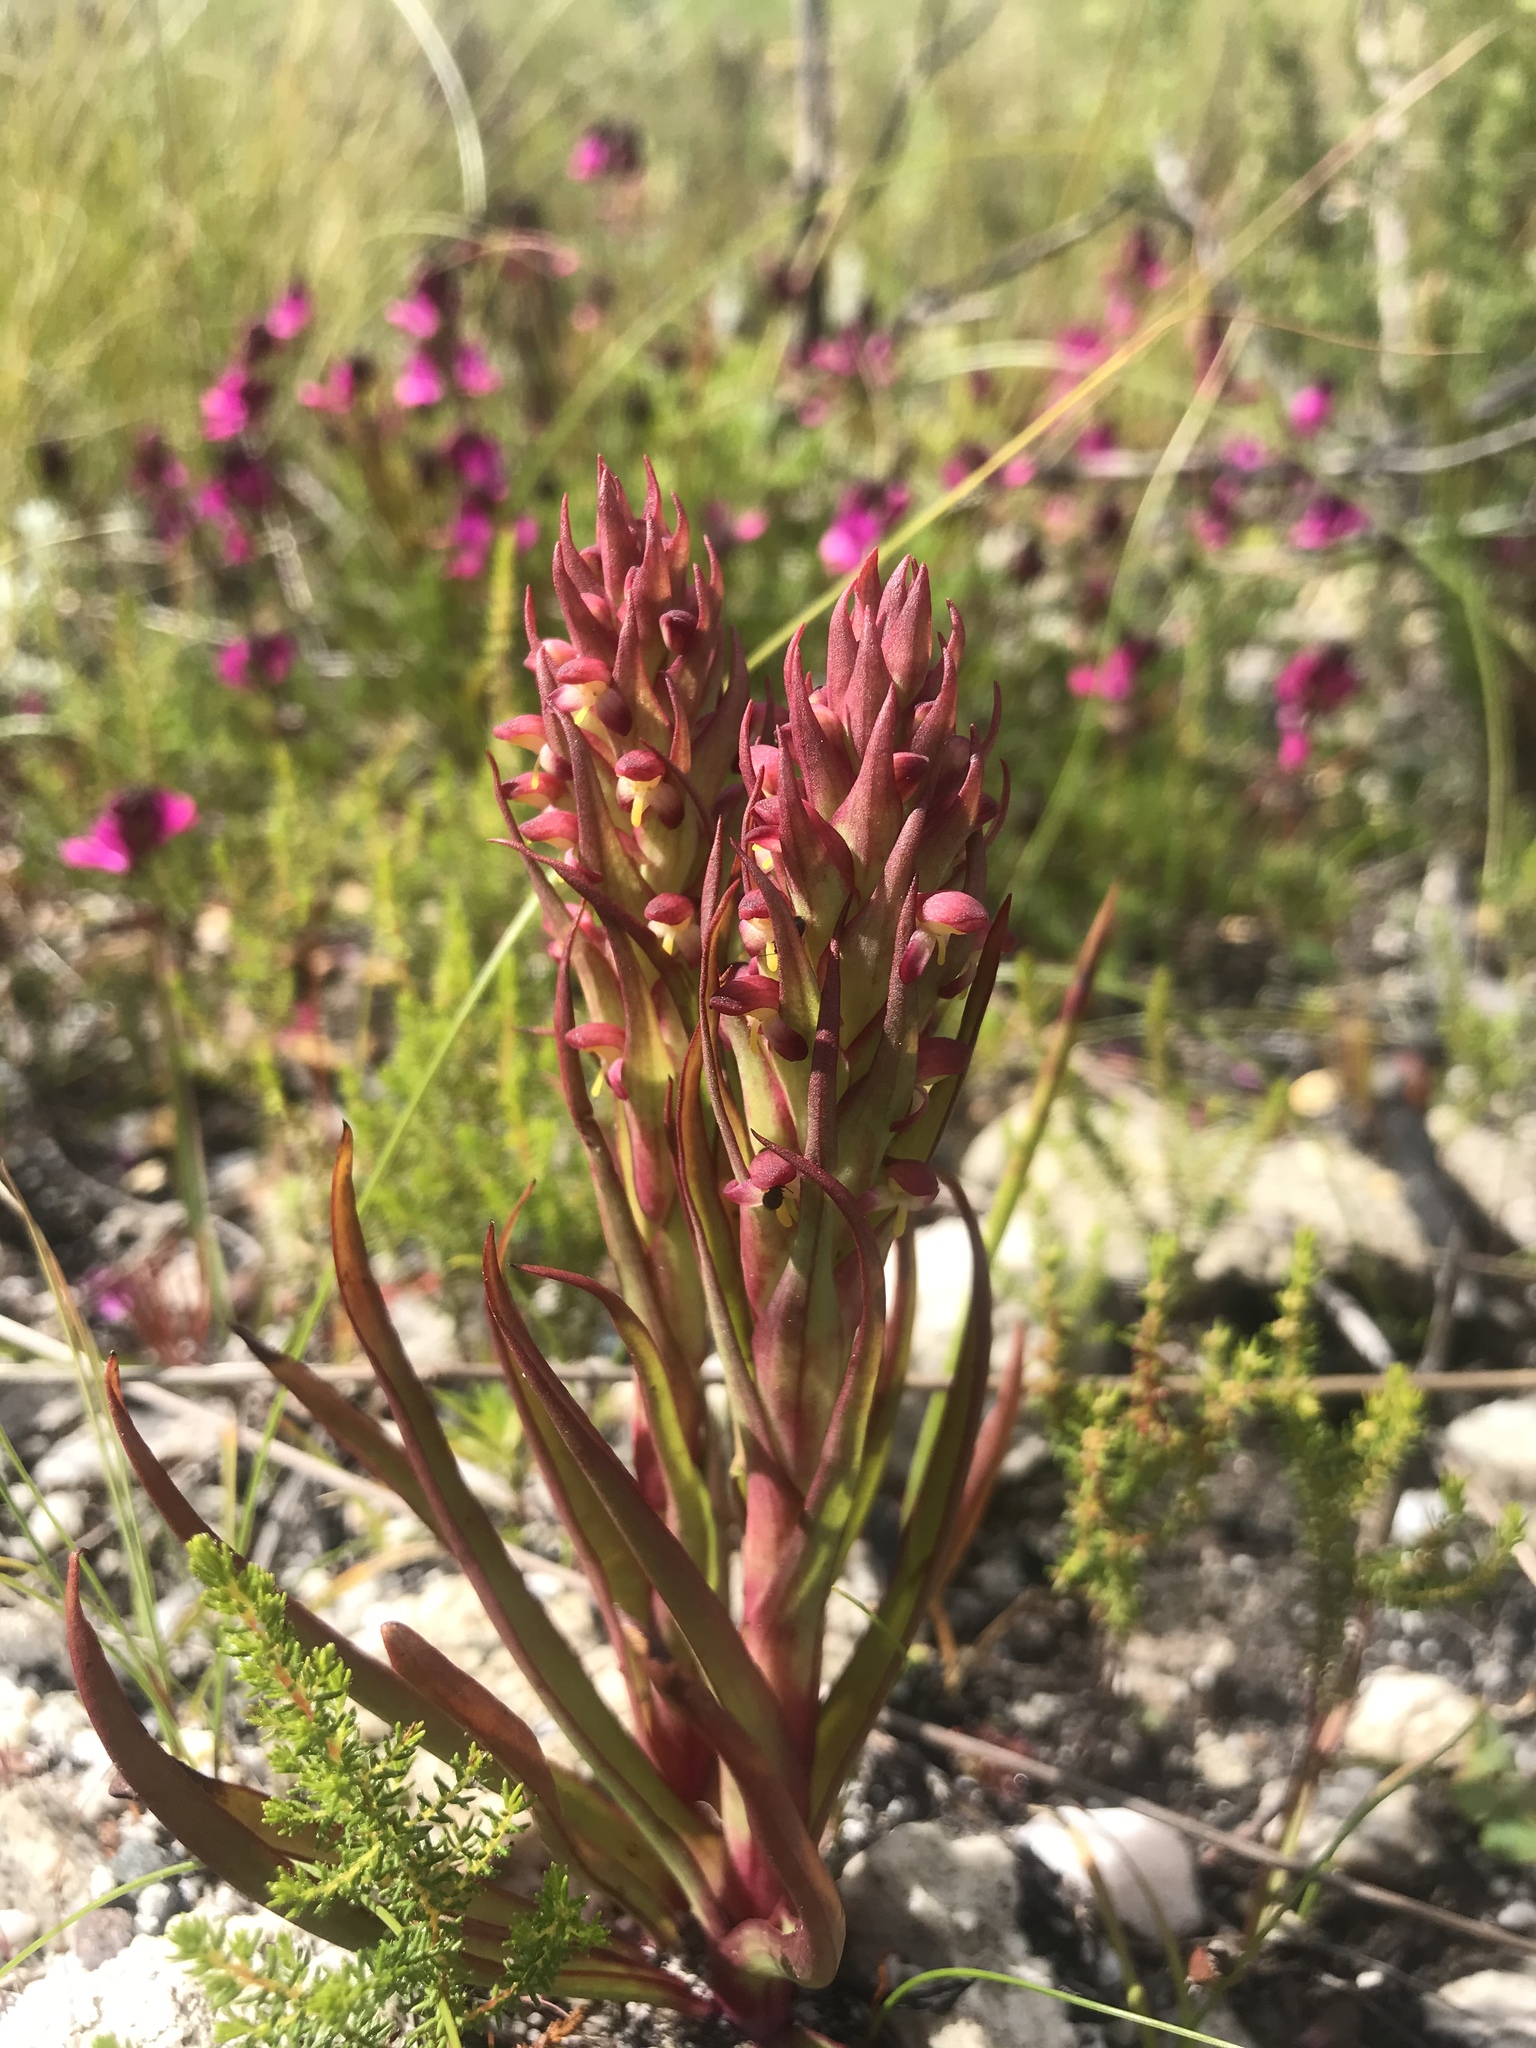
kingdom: Plantae
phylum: Tracheophyta
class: Liliopsida
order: Asparagales
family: Orchidaceae
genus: Disa
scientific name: Disa bracteata
